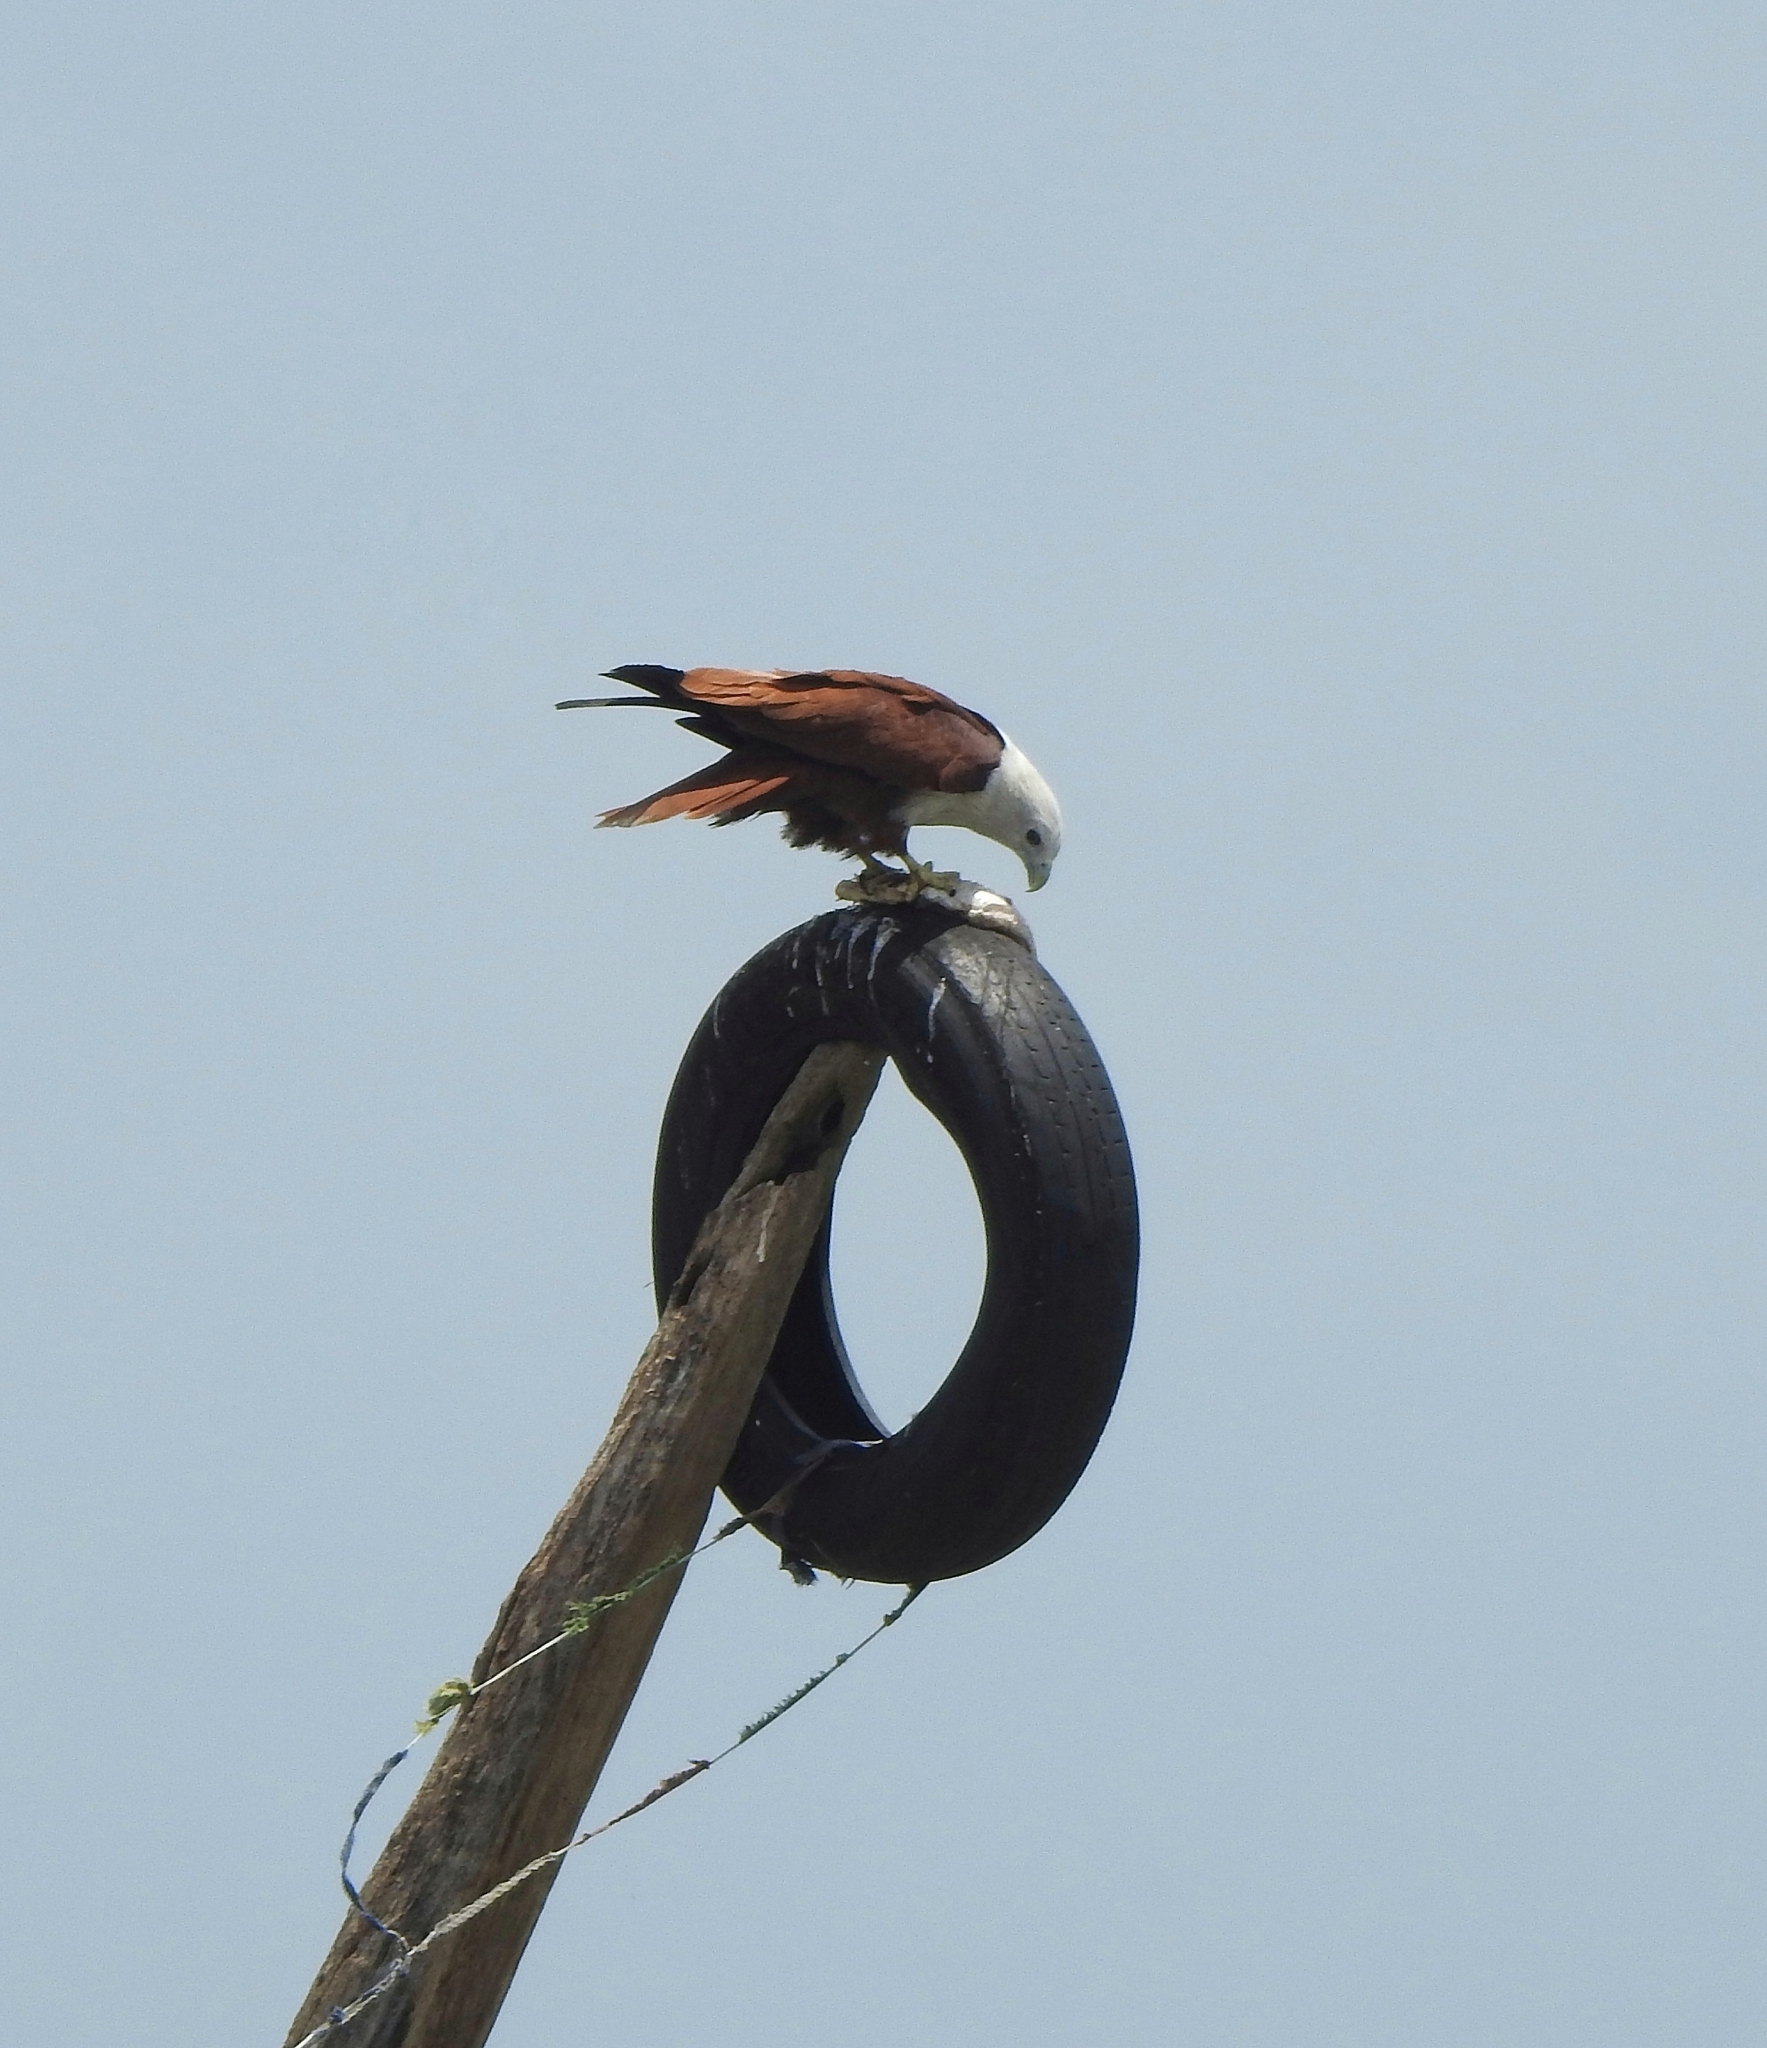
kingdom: Animalia
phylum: Chordata
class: Aves
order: Accipitriformes
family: Accipitridae
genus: Haliastur
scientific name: Haliastur indus
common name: Brahminy kite
